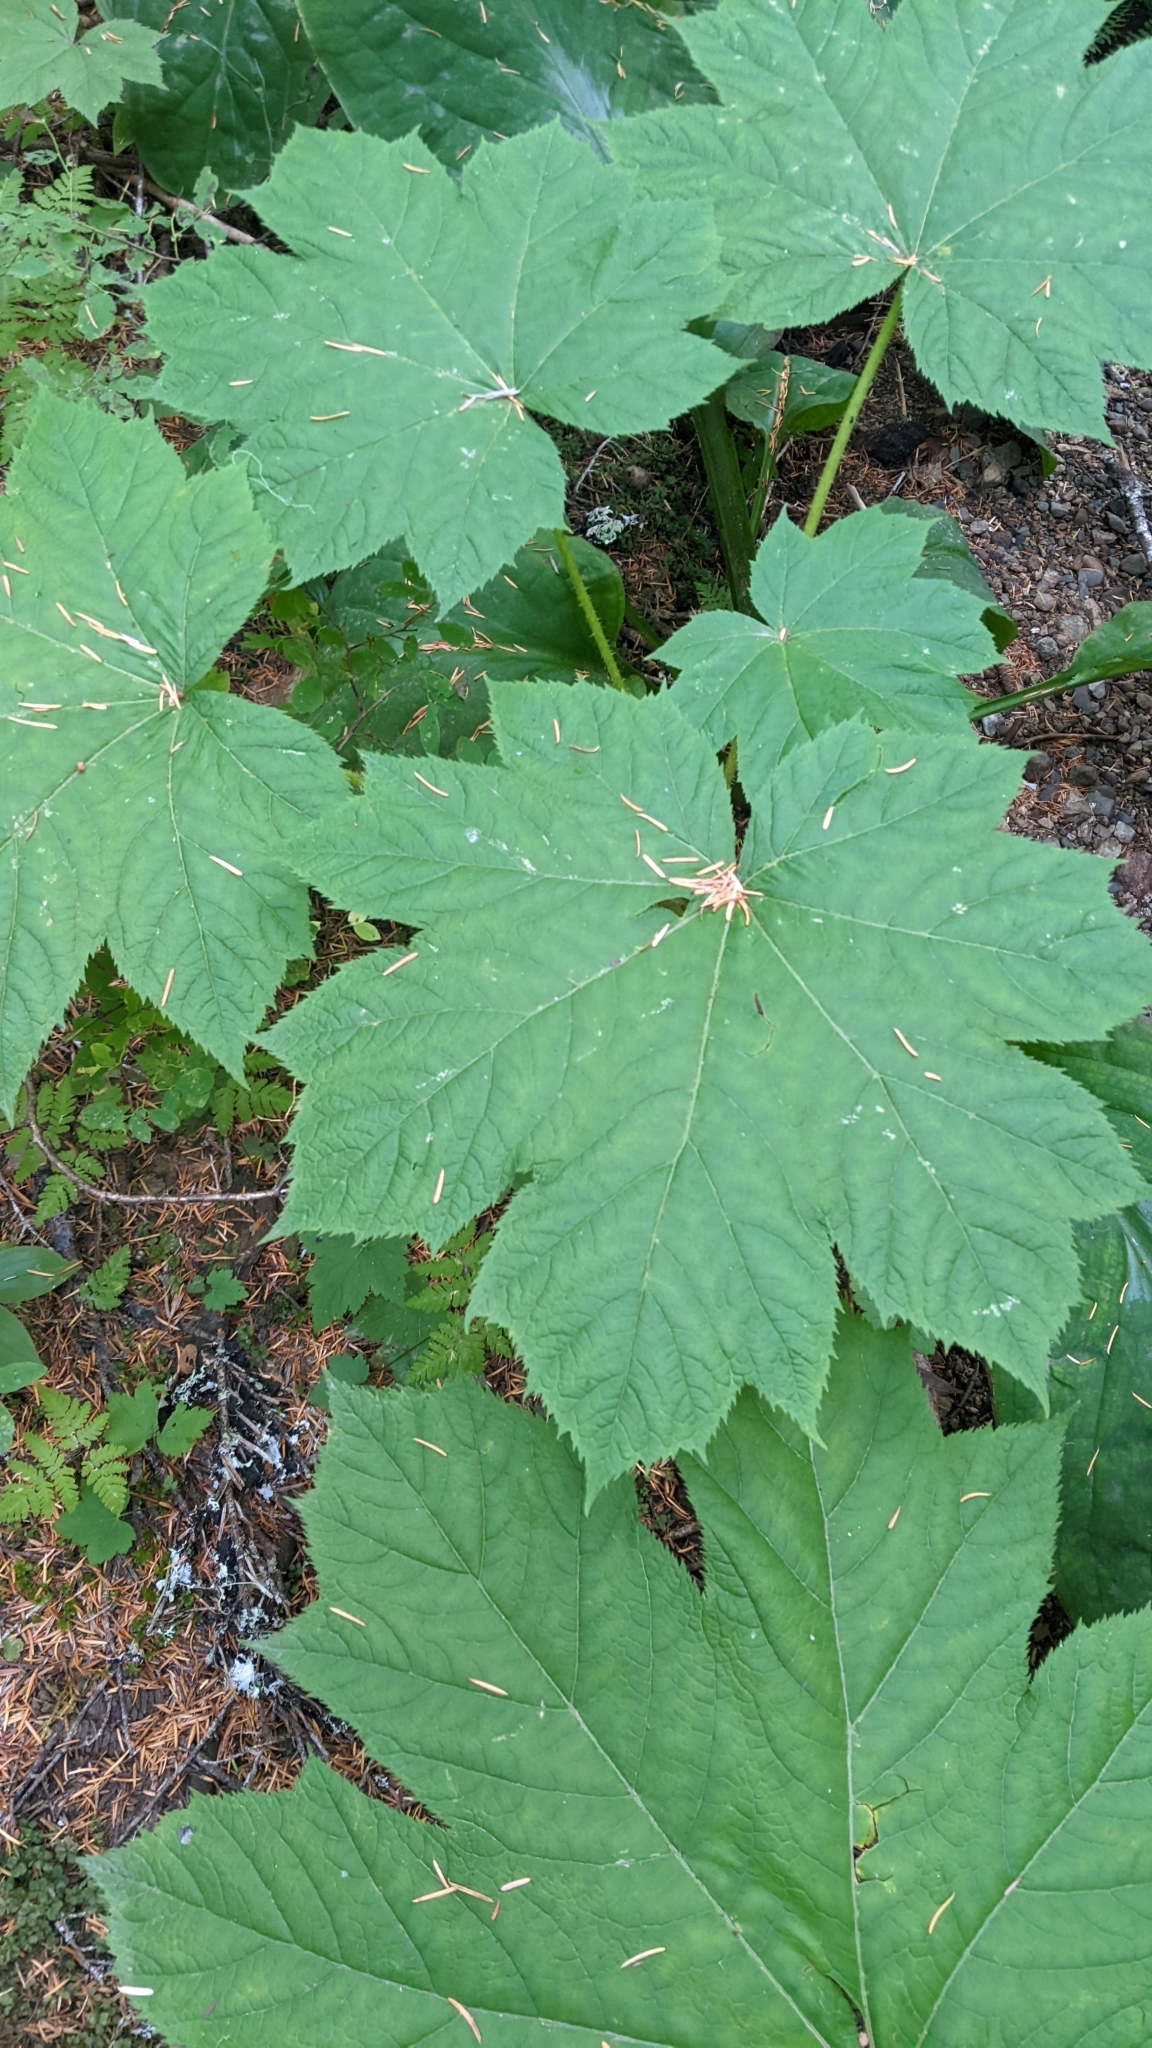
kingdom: Plantae
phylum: Tracheophyta
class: Magnoliopsida
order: Apiales
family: Araliaceae
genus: Oplopanax
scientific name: Oplopanax horridus
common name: Devil's walking-stick
